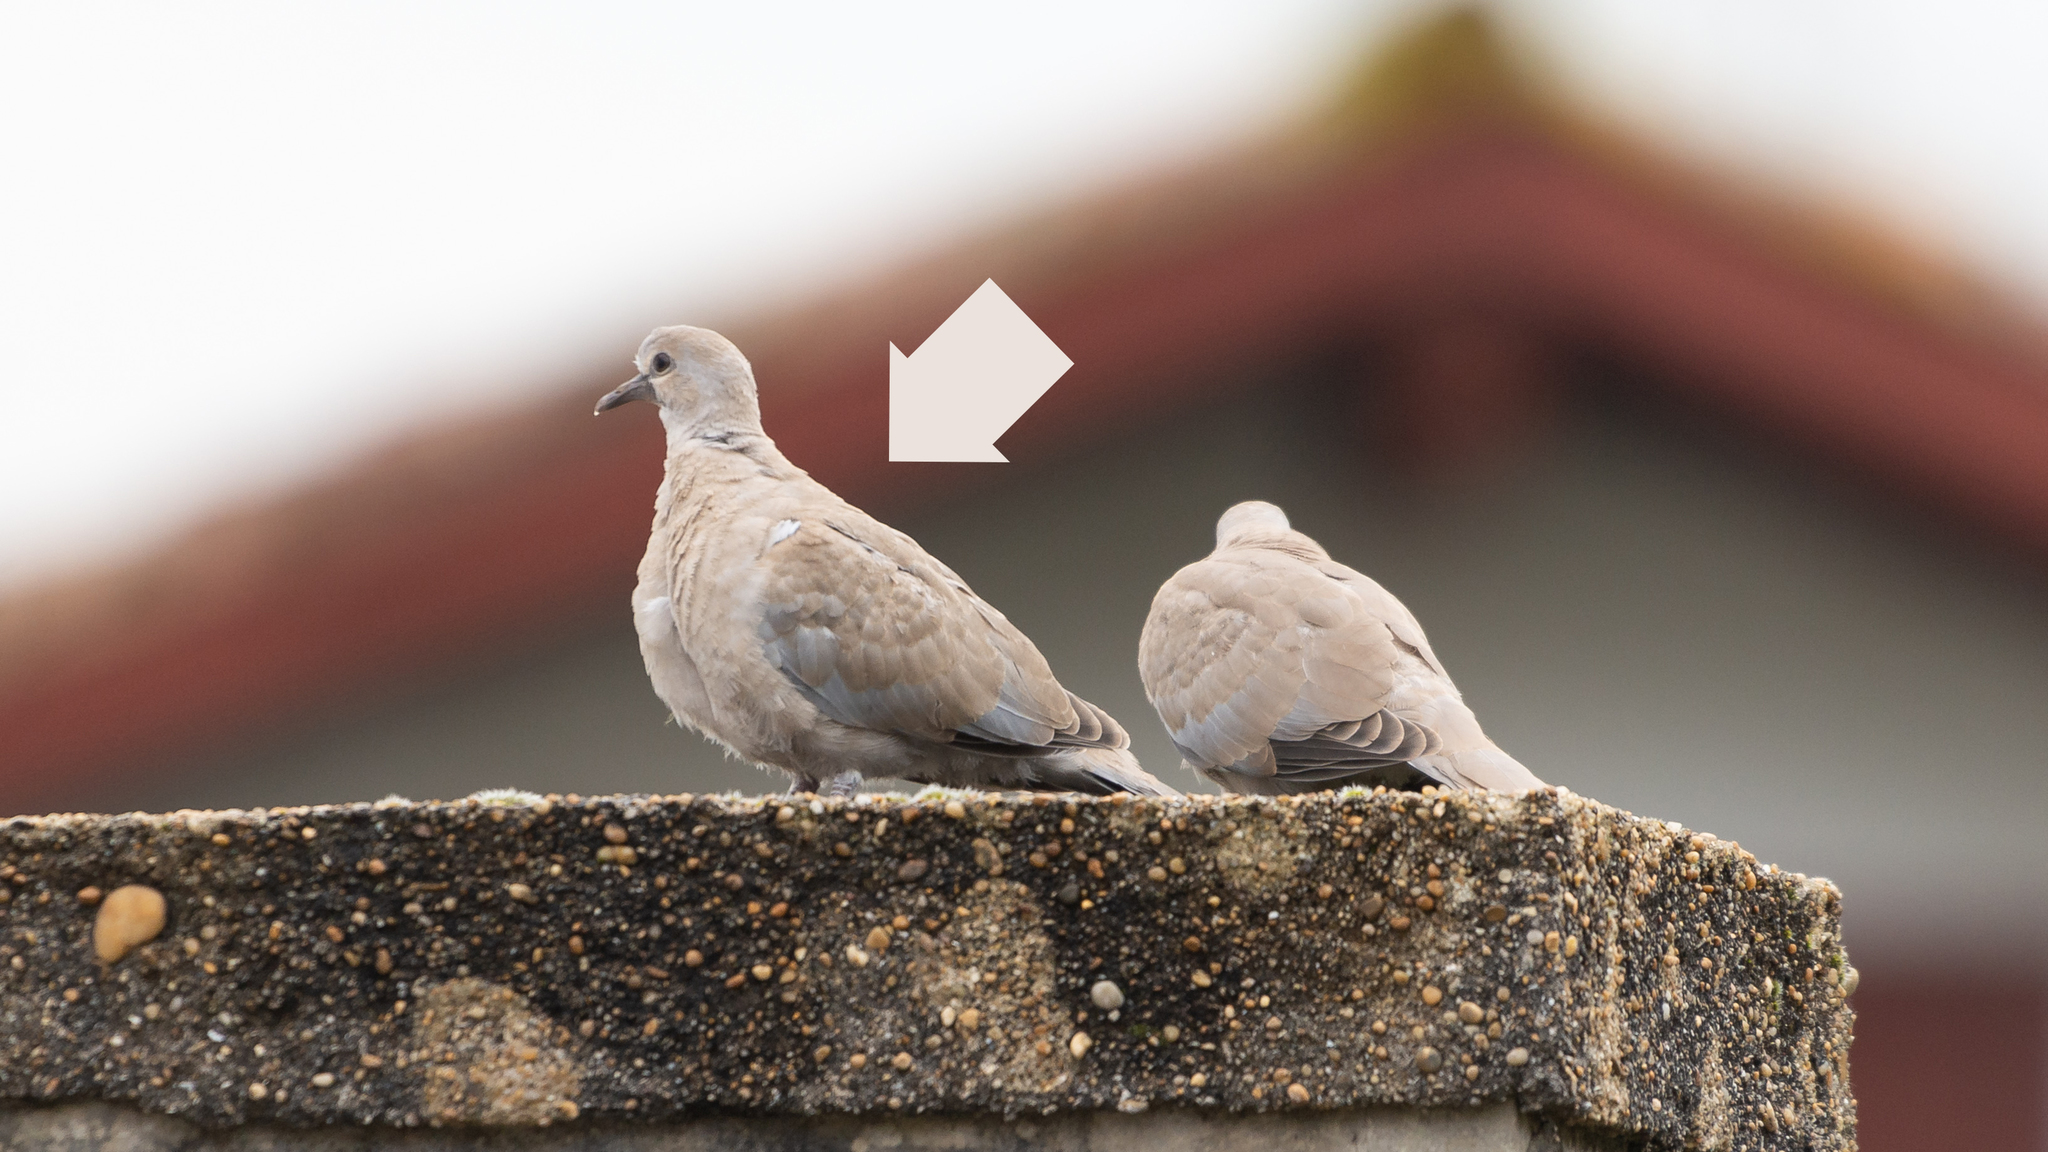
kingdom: Animalia
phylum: Chordata
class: Aves
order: Columbiformes
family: Columbidae
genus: Streptopelia
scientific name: Streptopelia decaocto
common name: Eurasian collared dove
